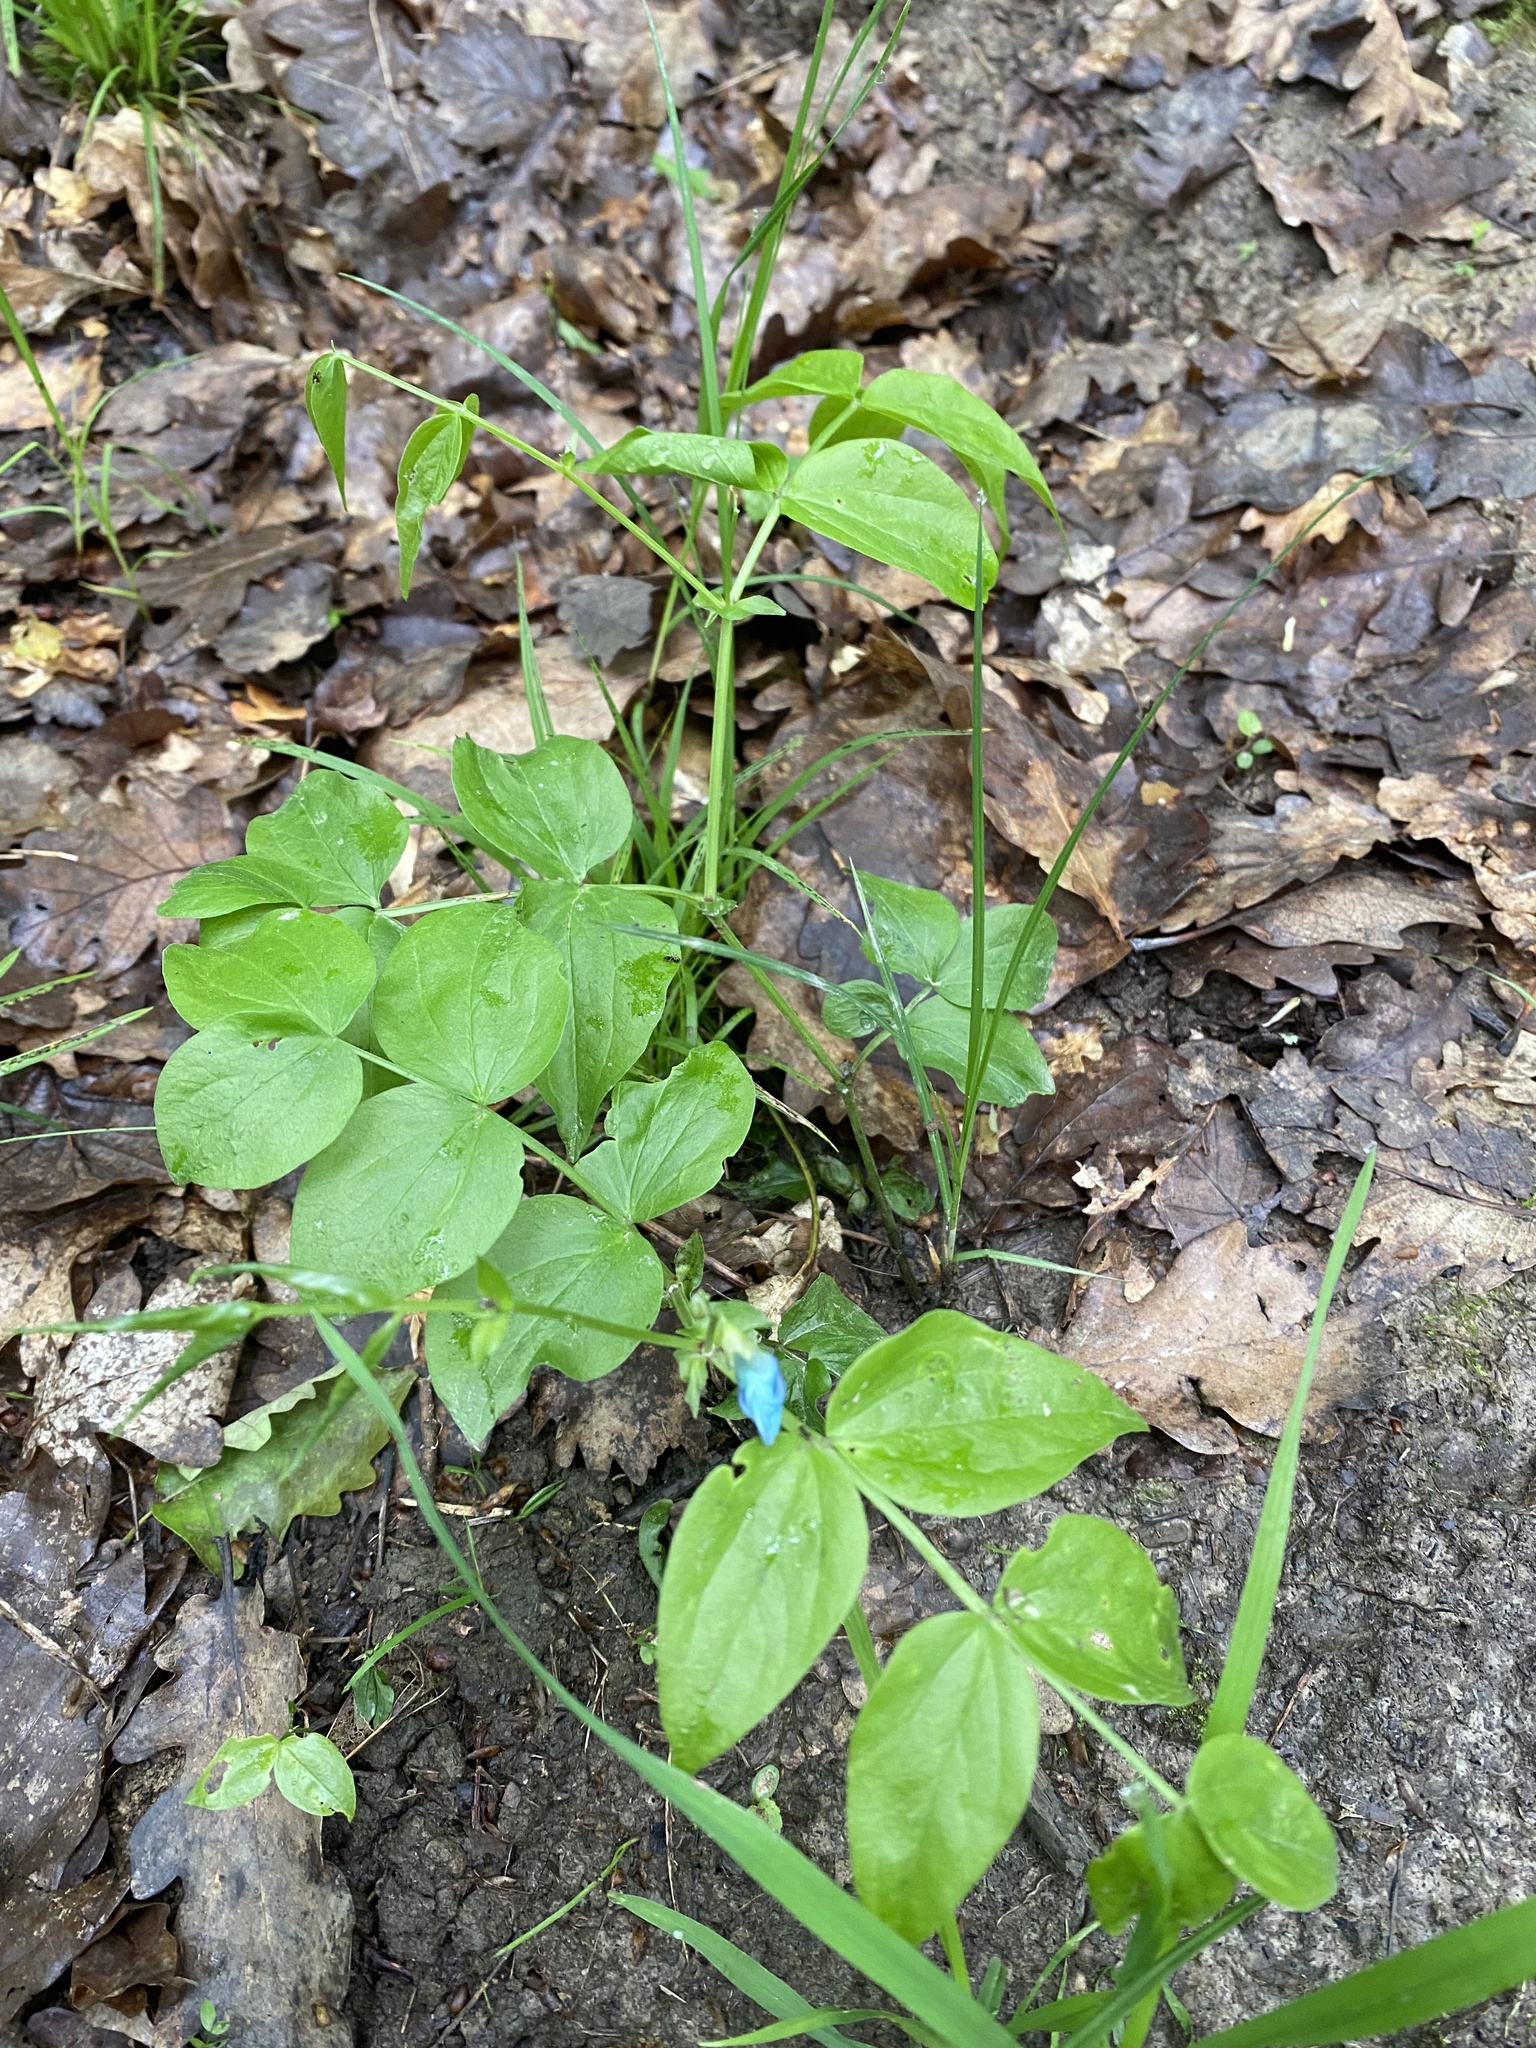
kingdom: Plantae
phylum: Tracheophyta
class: Magnoliopsida
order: Fabales
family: Fabaceae
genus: Lathyrus
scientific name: Lathyrus vernus
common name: Spring pea
